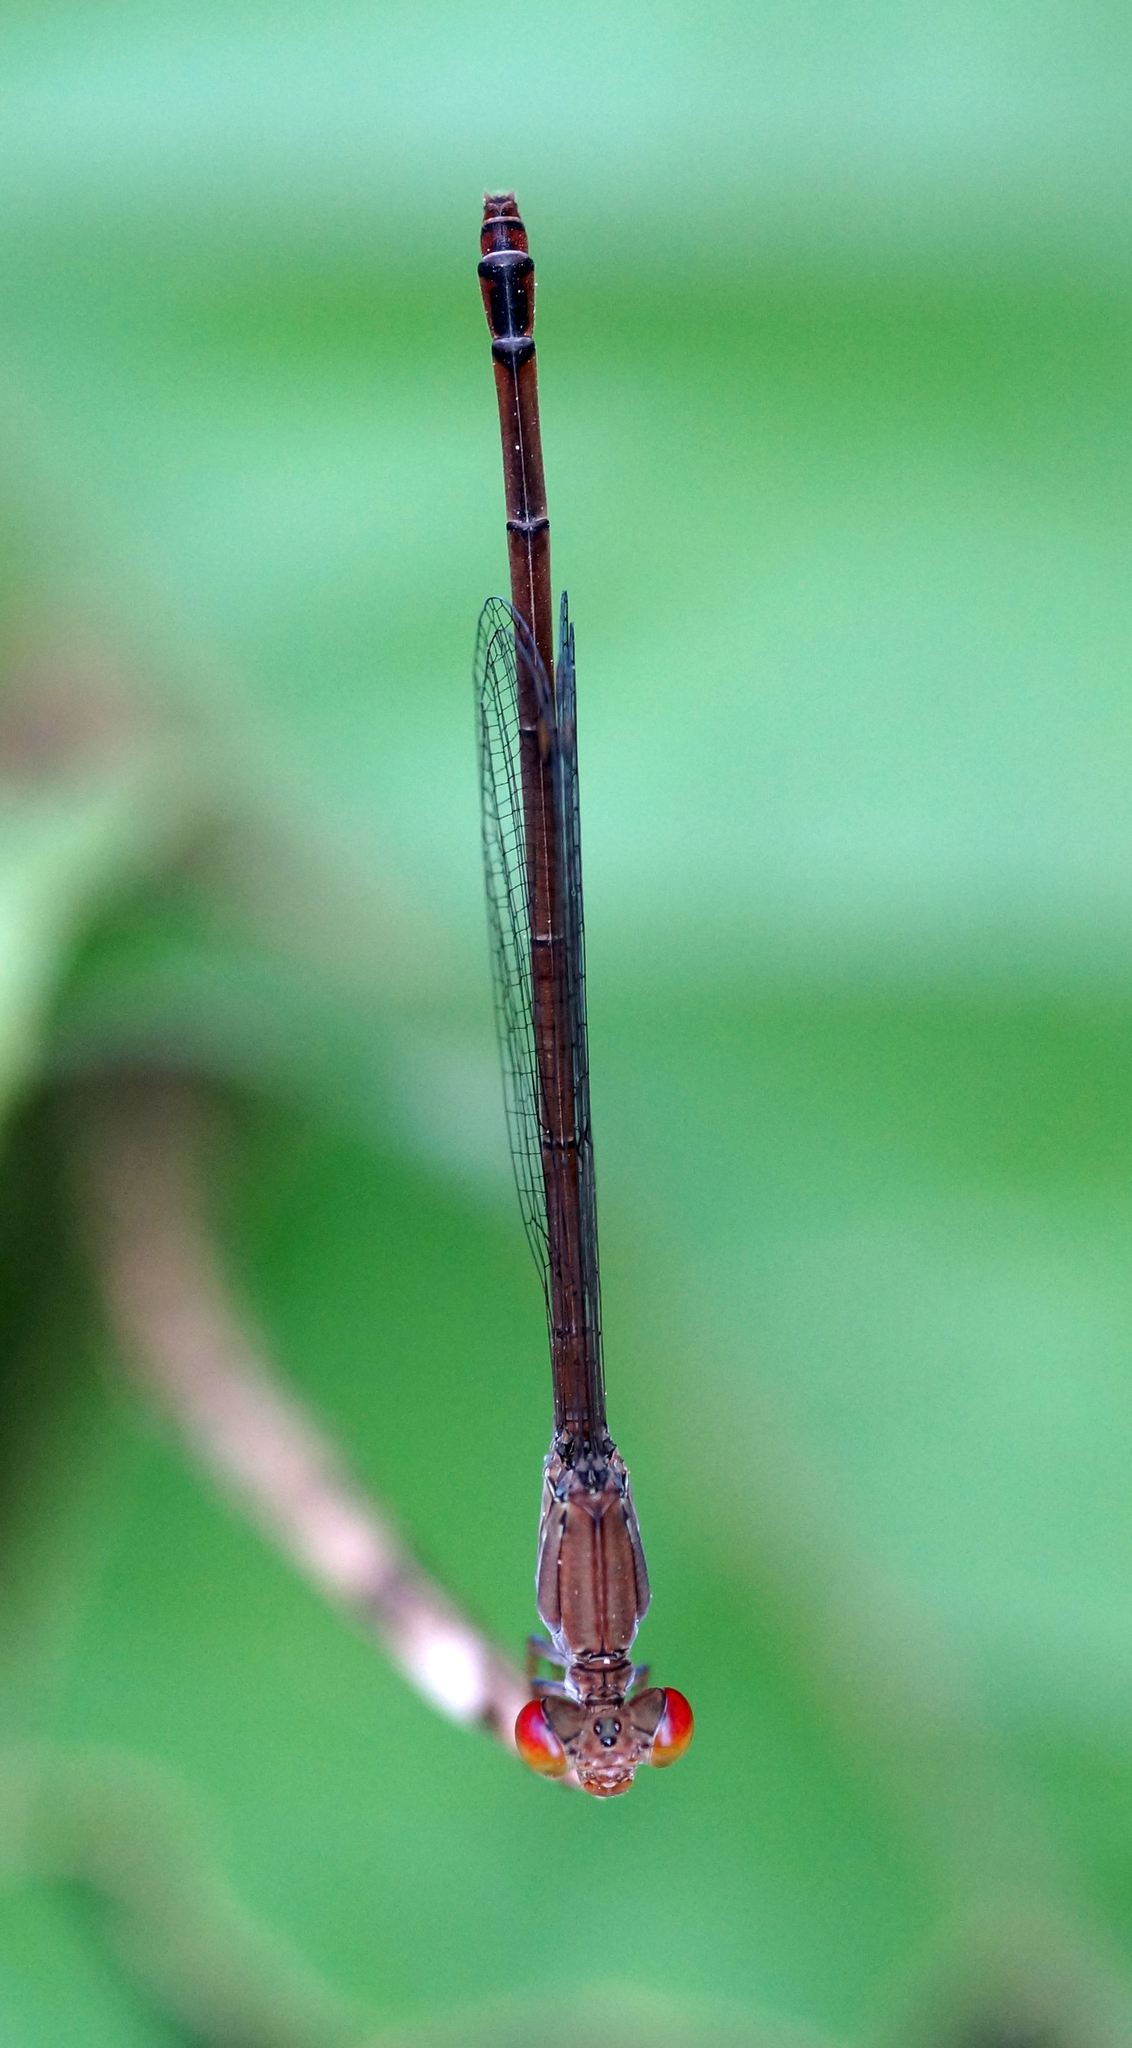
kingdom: Animalia
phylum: Arthropoda
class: Insecta
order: Odonata
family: Coenagrionidae
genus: Ceriagrion
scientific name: Ceriagrion praetermissum
